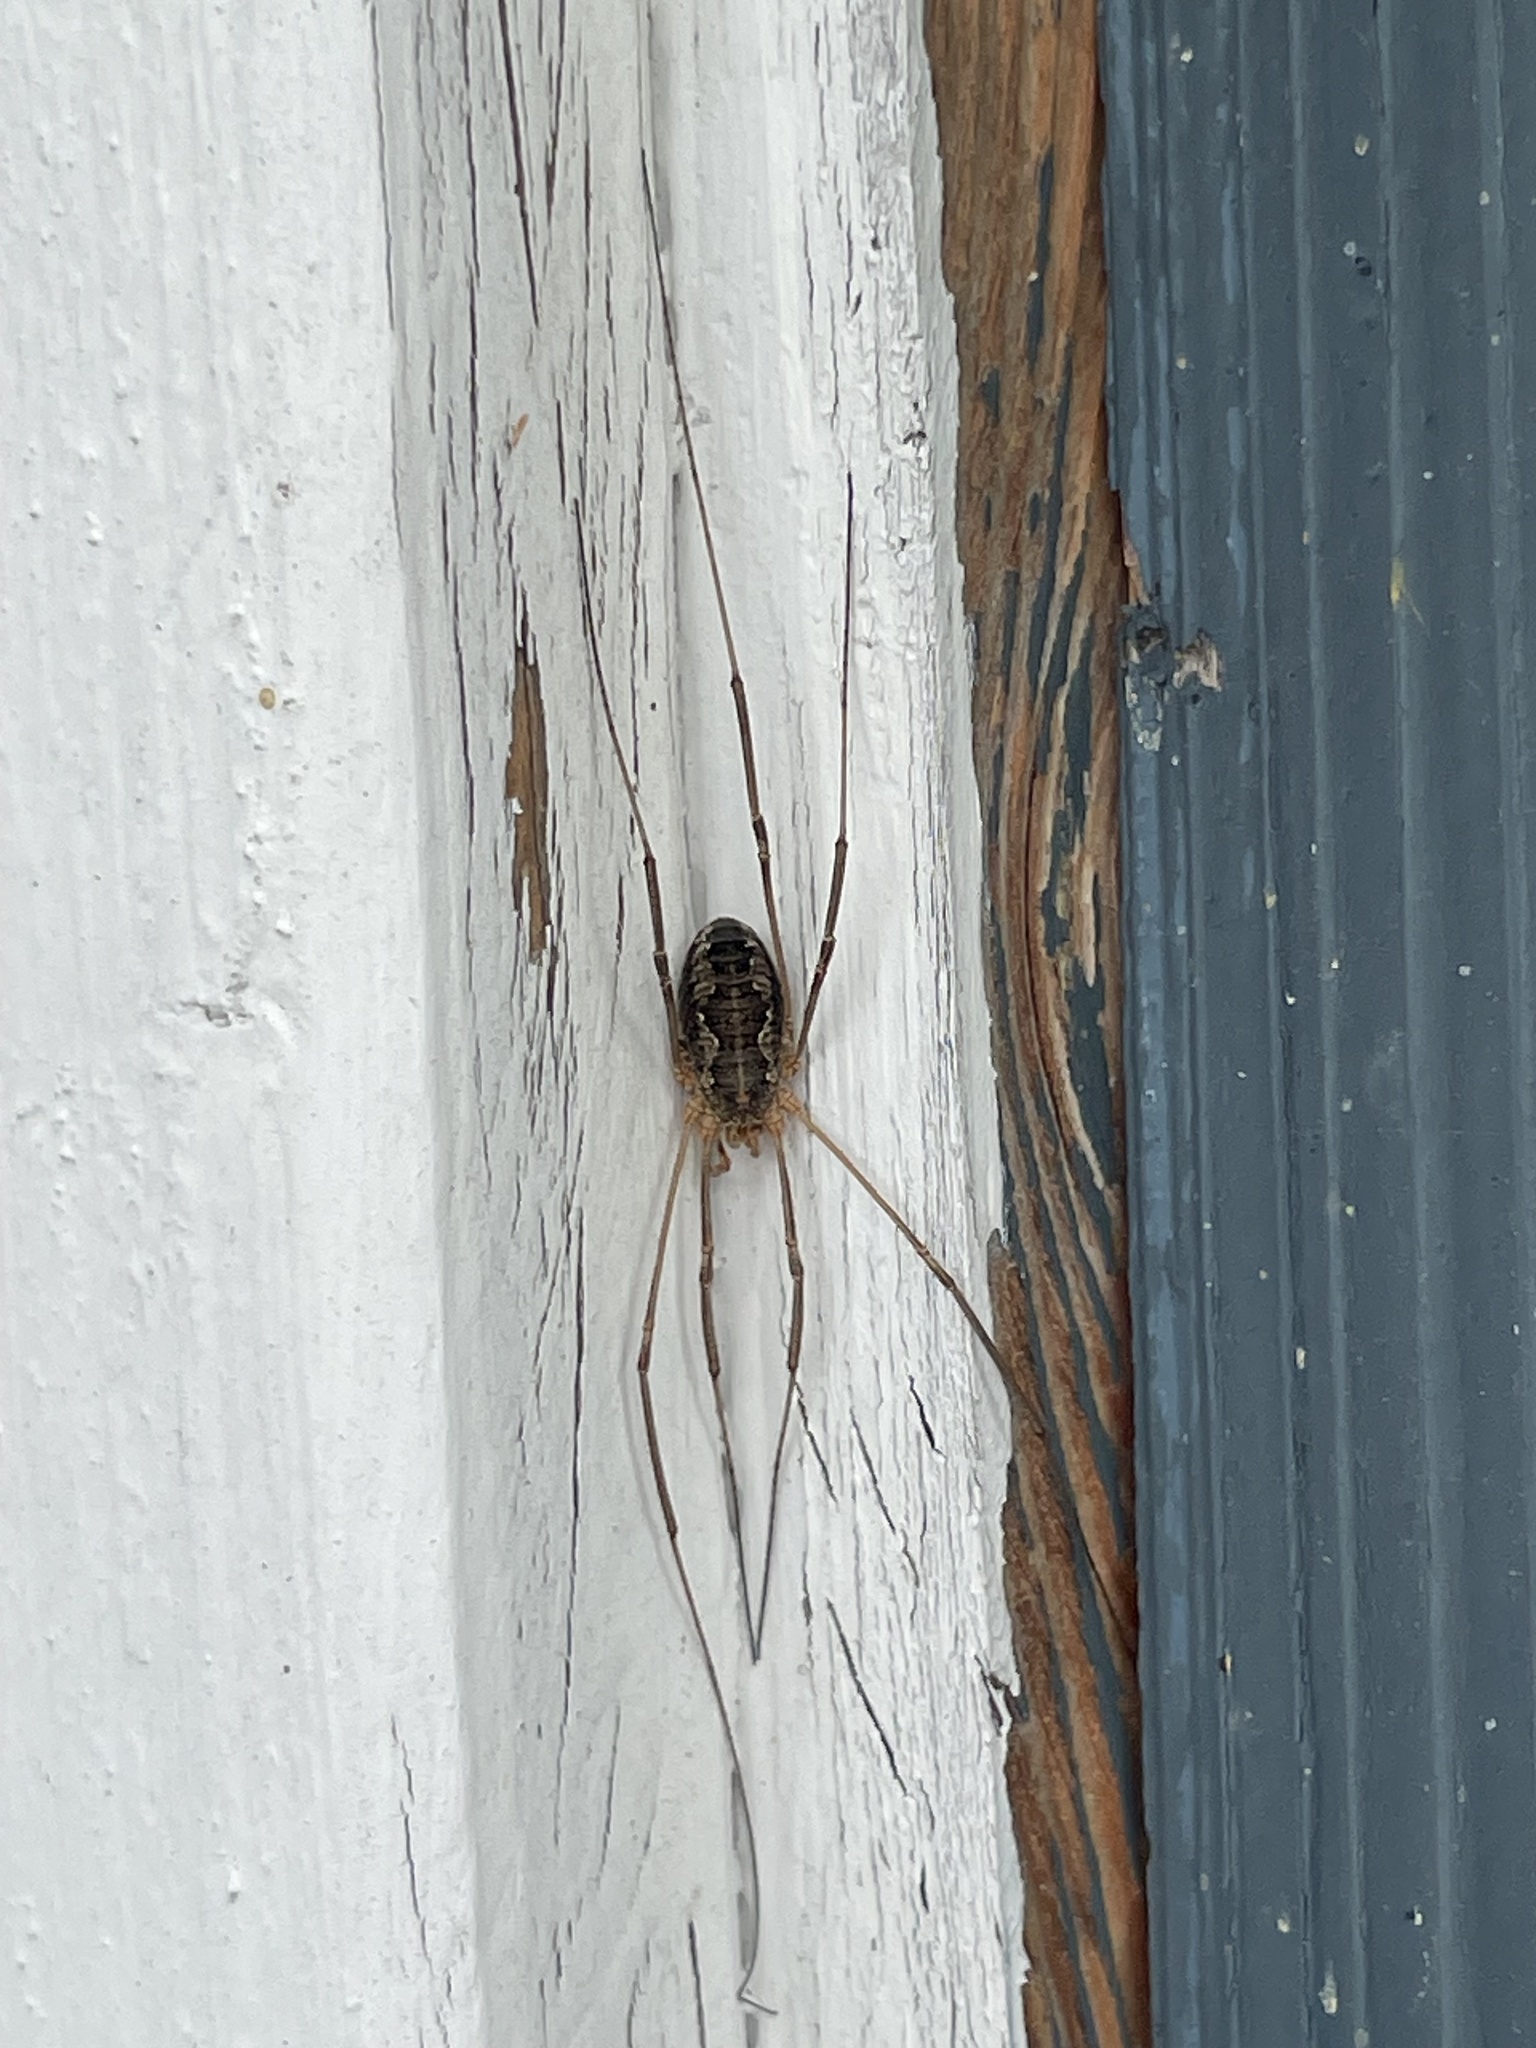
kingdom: Animalia
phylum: Arthropoda
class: Arachnida
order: Opiliones
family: Phalangiidae
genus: Phalangium
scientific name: Phalangium opilio
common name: Daddy longleg
